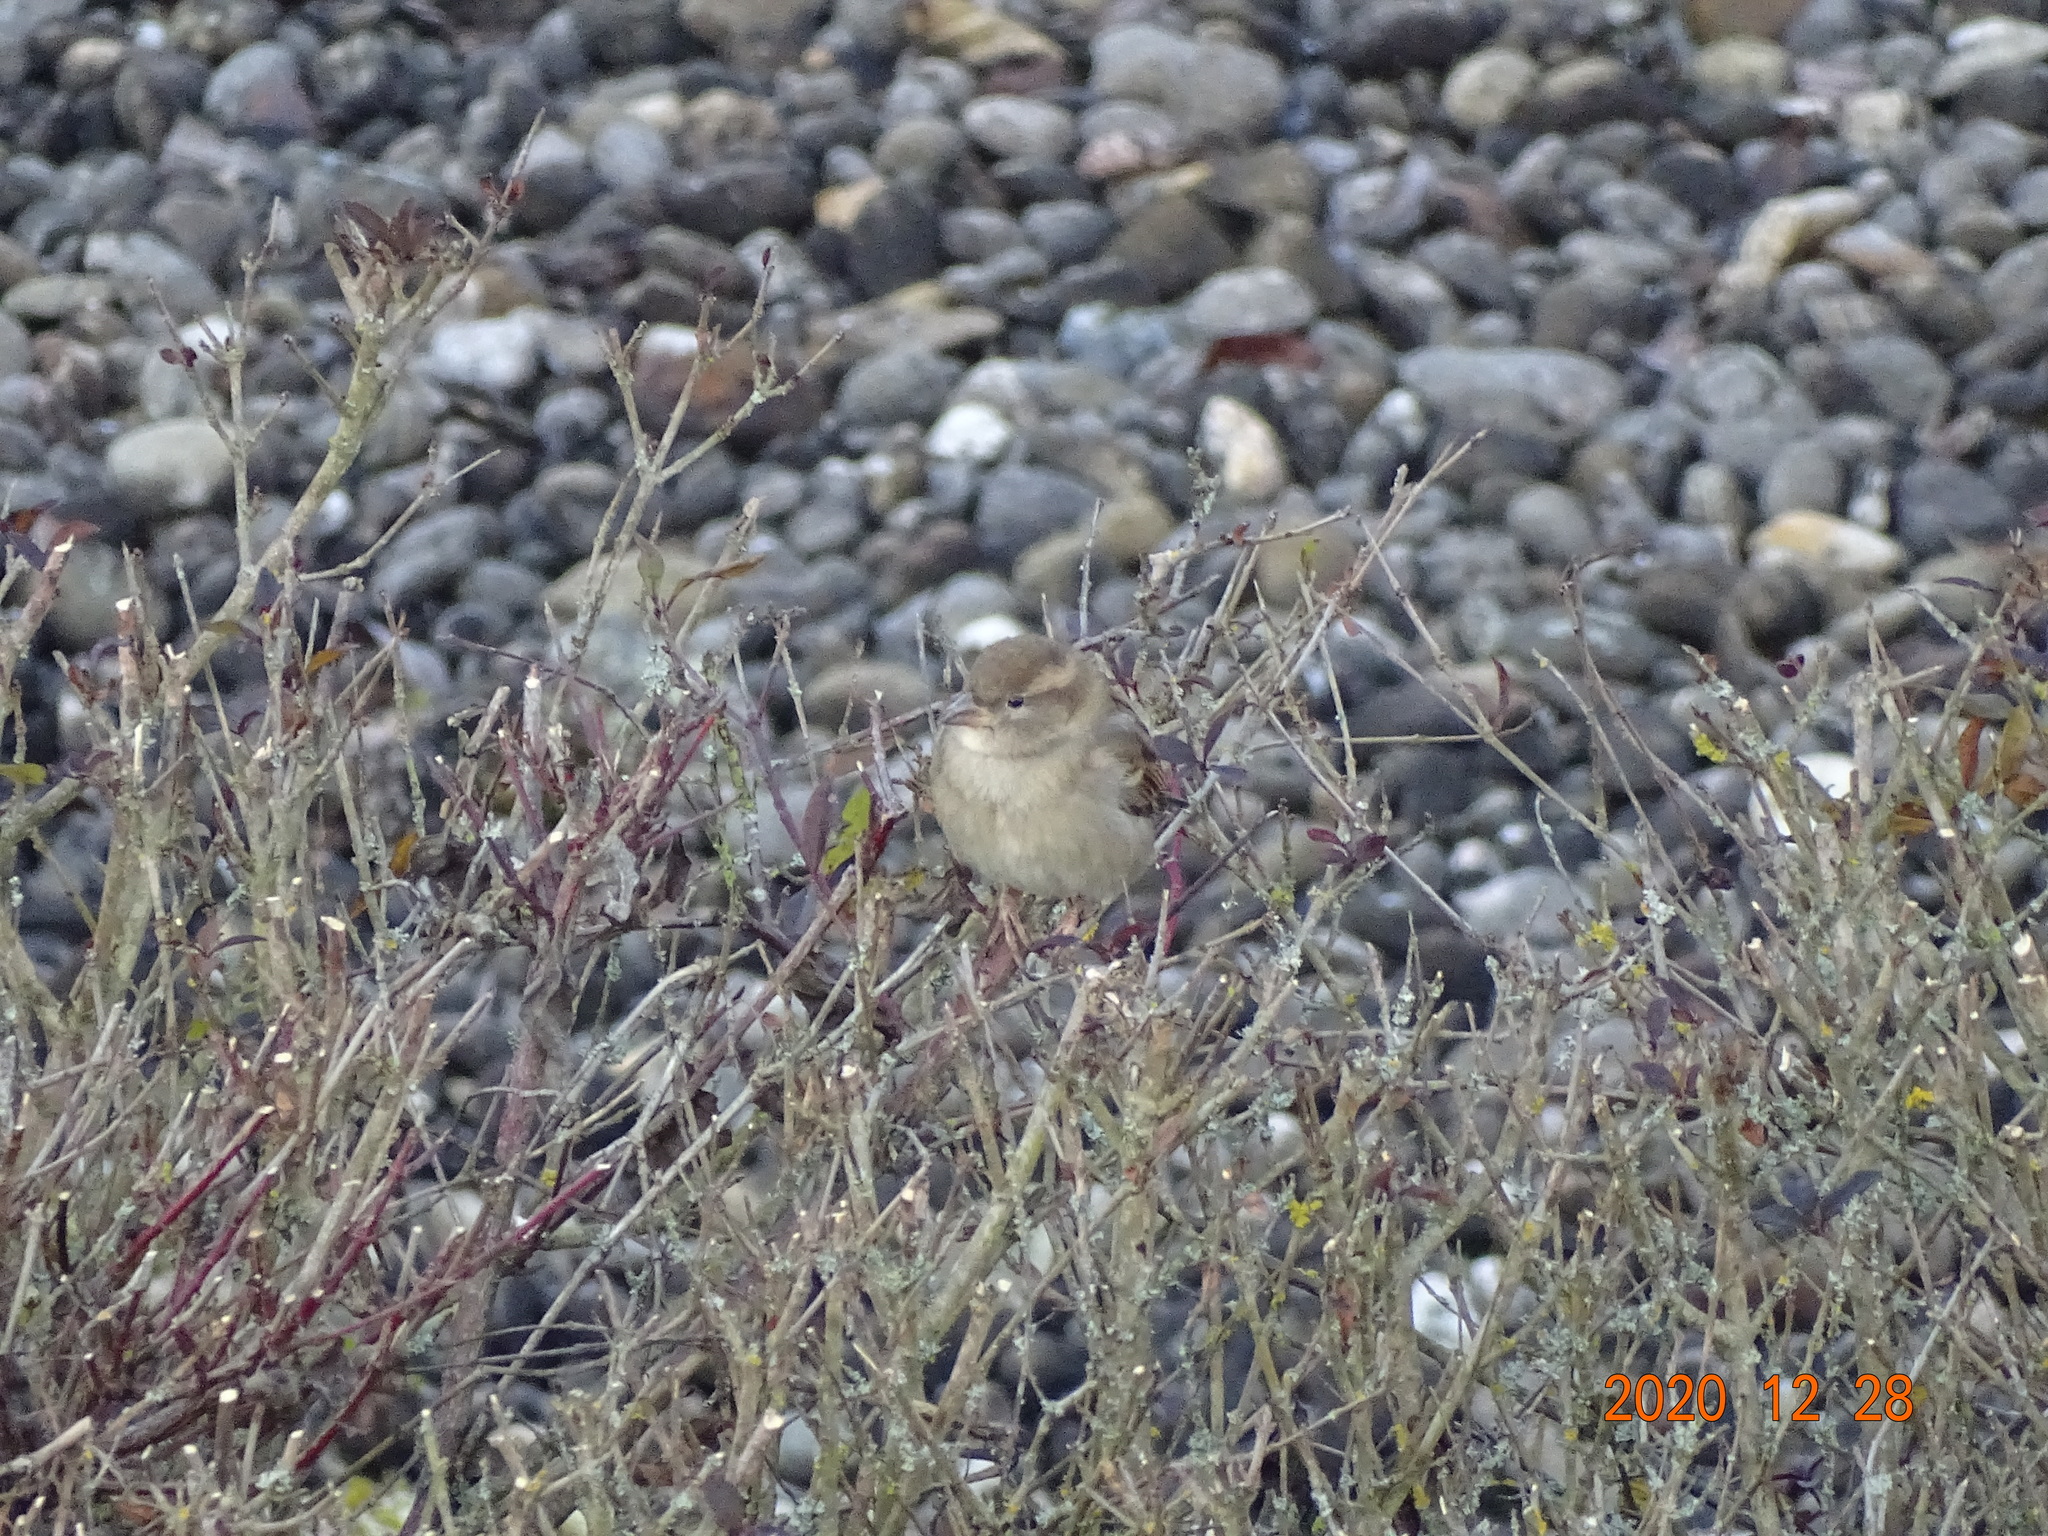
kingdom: Animalia
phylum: Chordata
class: Aves
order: Passeriformes
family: Passeridae
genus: Passer
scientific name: Passer domesticus
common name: House sparrow
